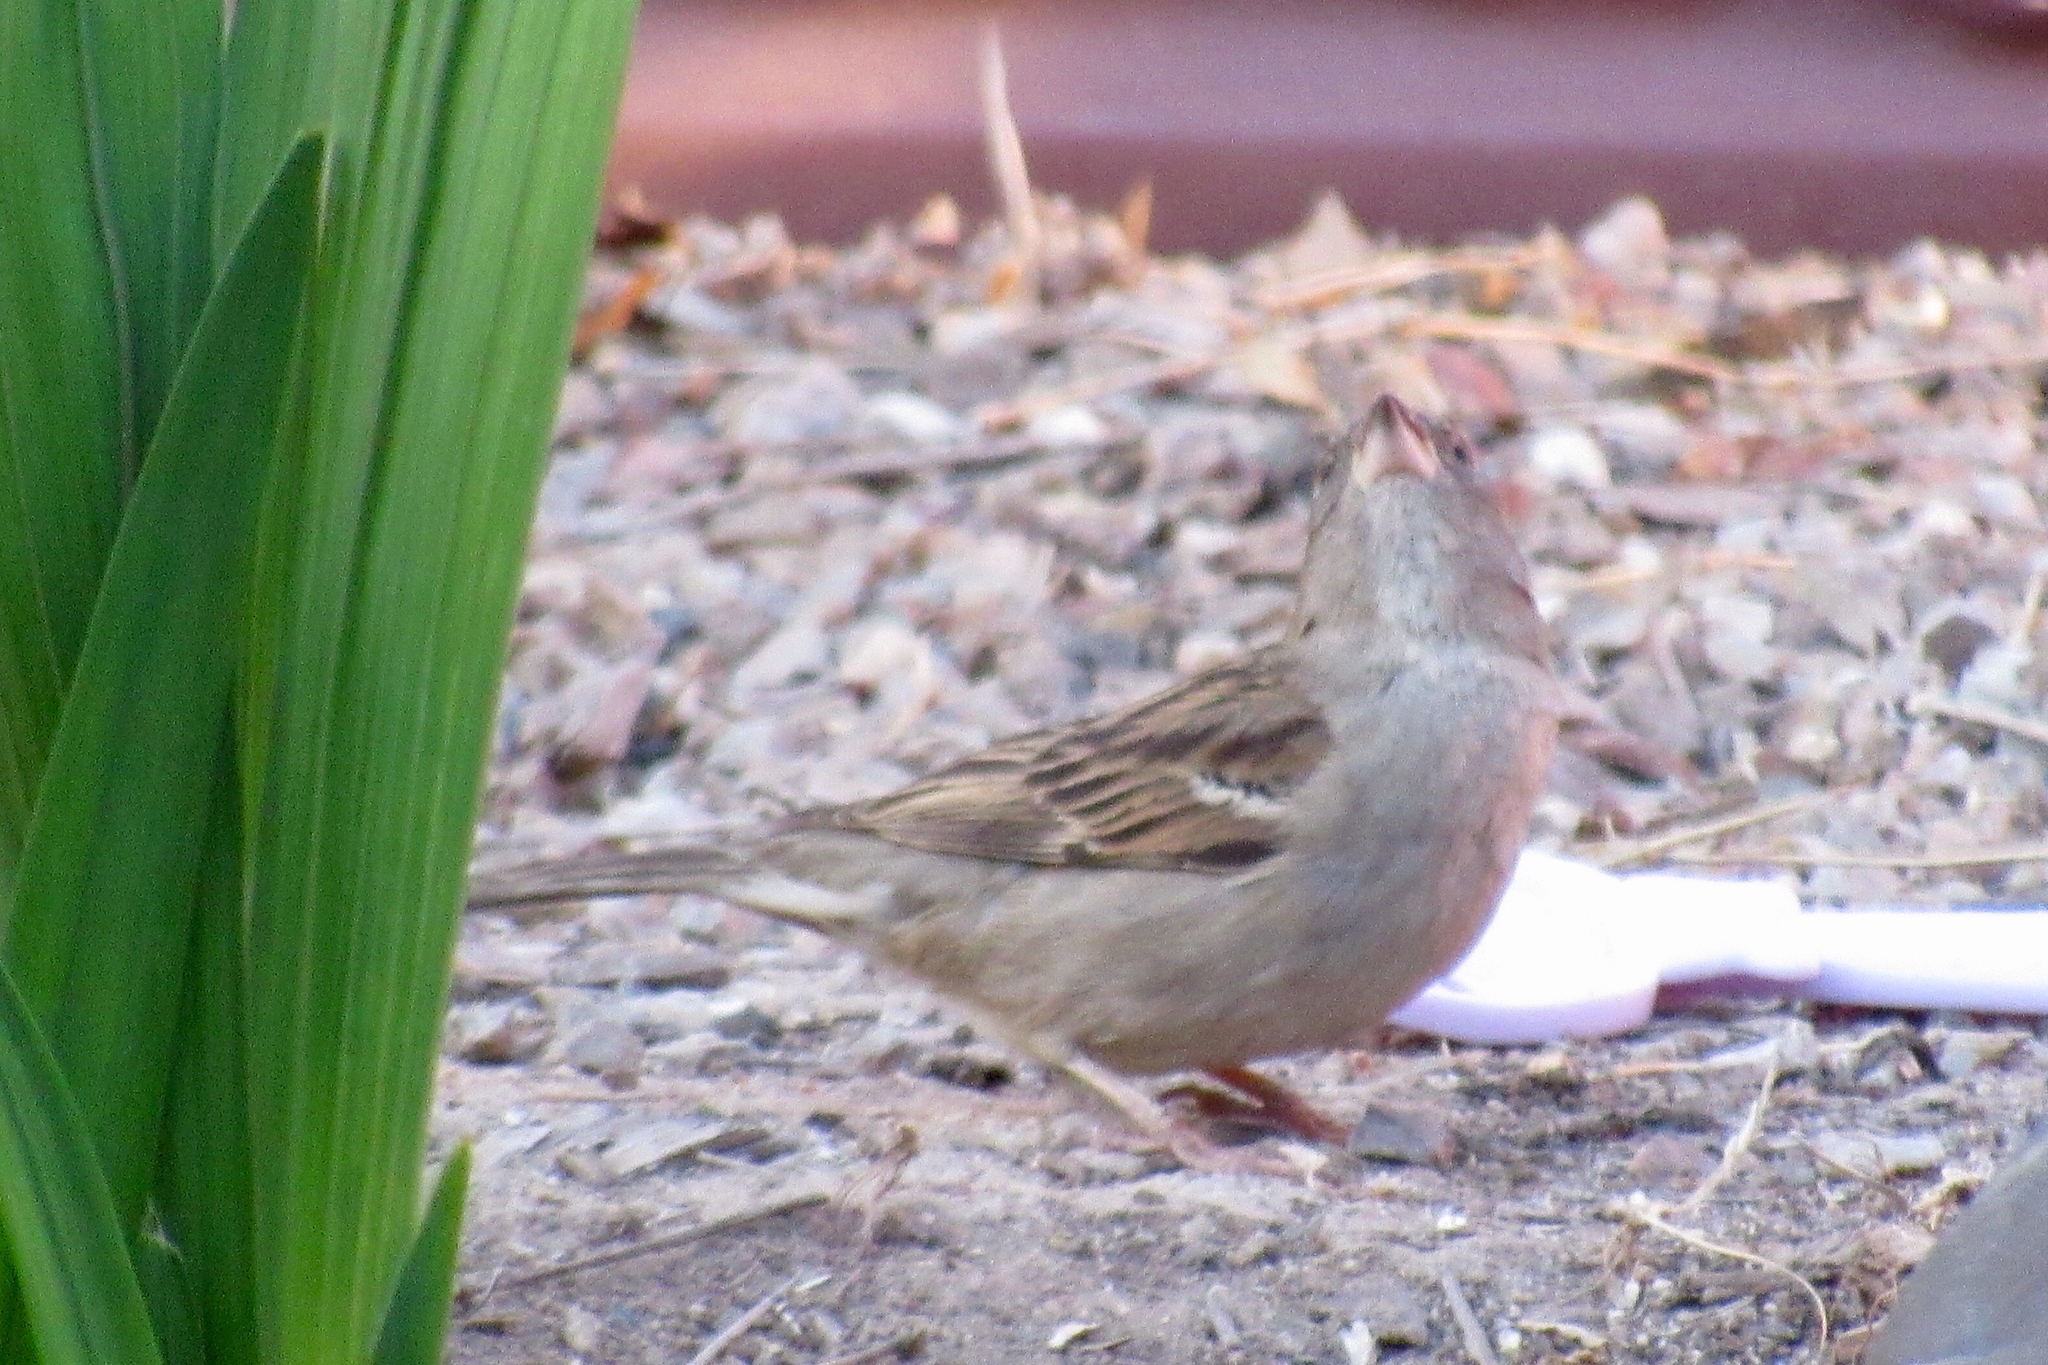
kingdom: Animalia
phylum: Chordata
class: Aves
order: Passeriformes
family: Passeridae
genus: Passer
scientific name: Passer domesticus
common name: House sparrow
